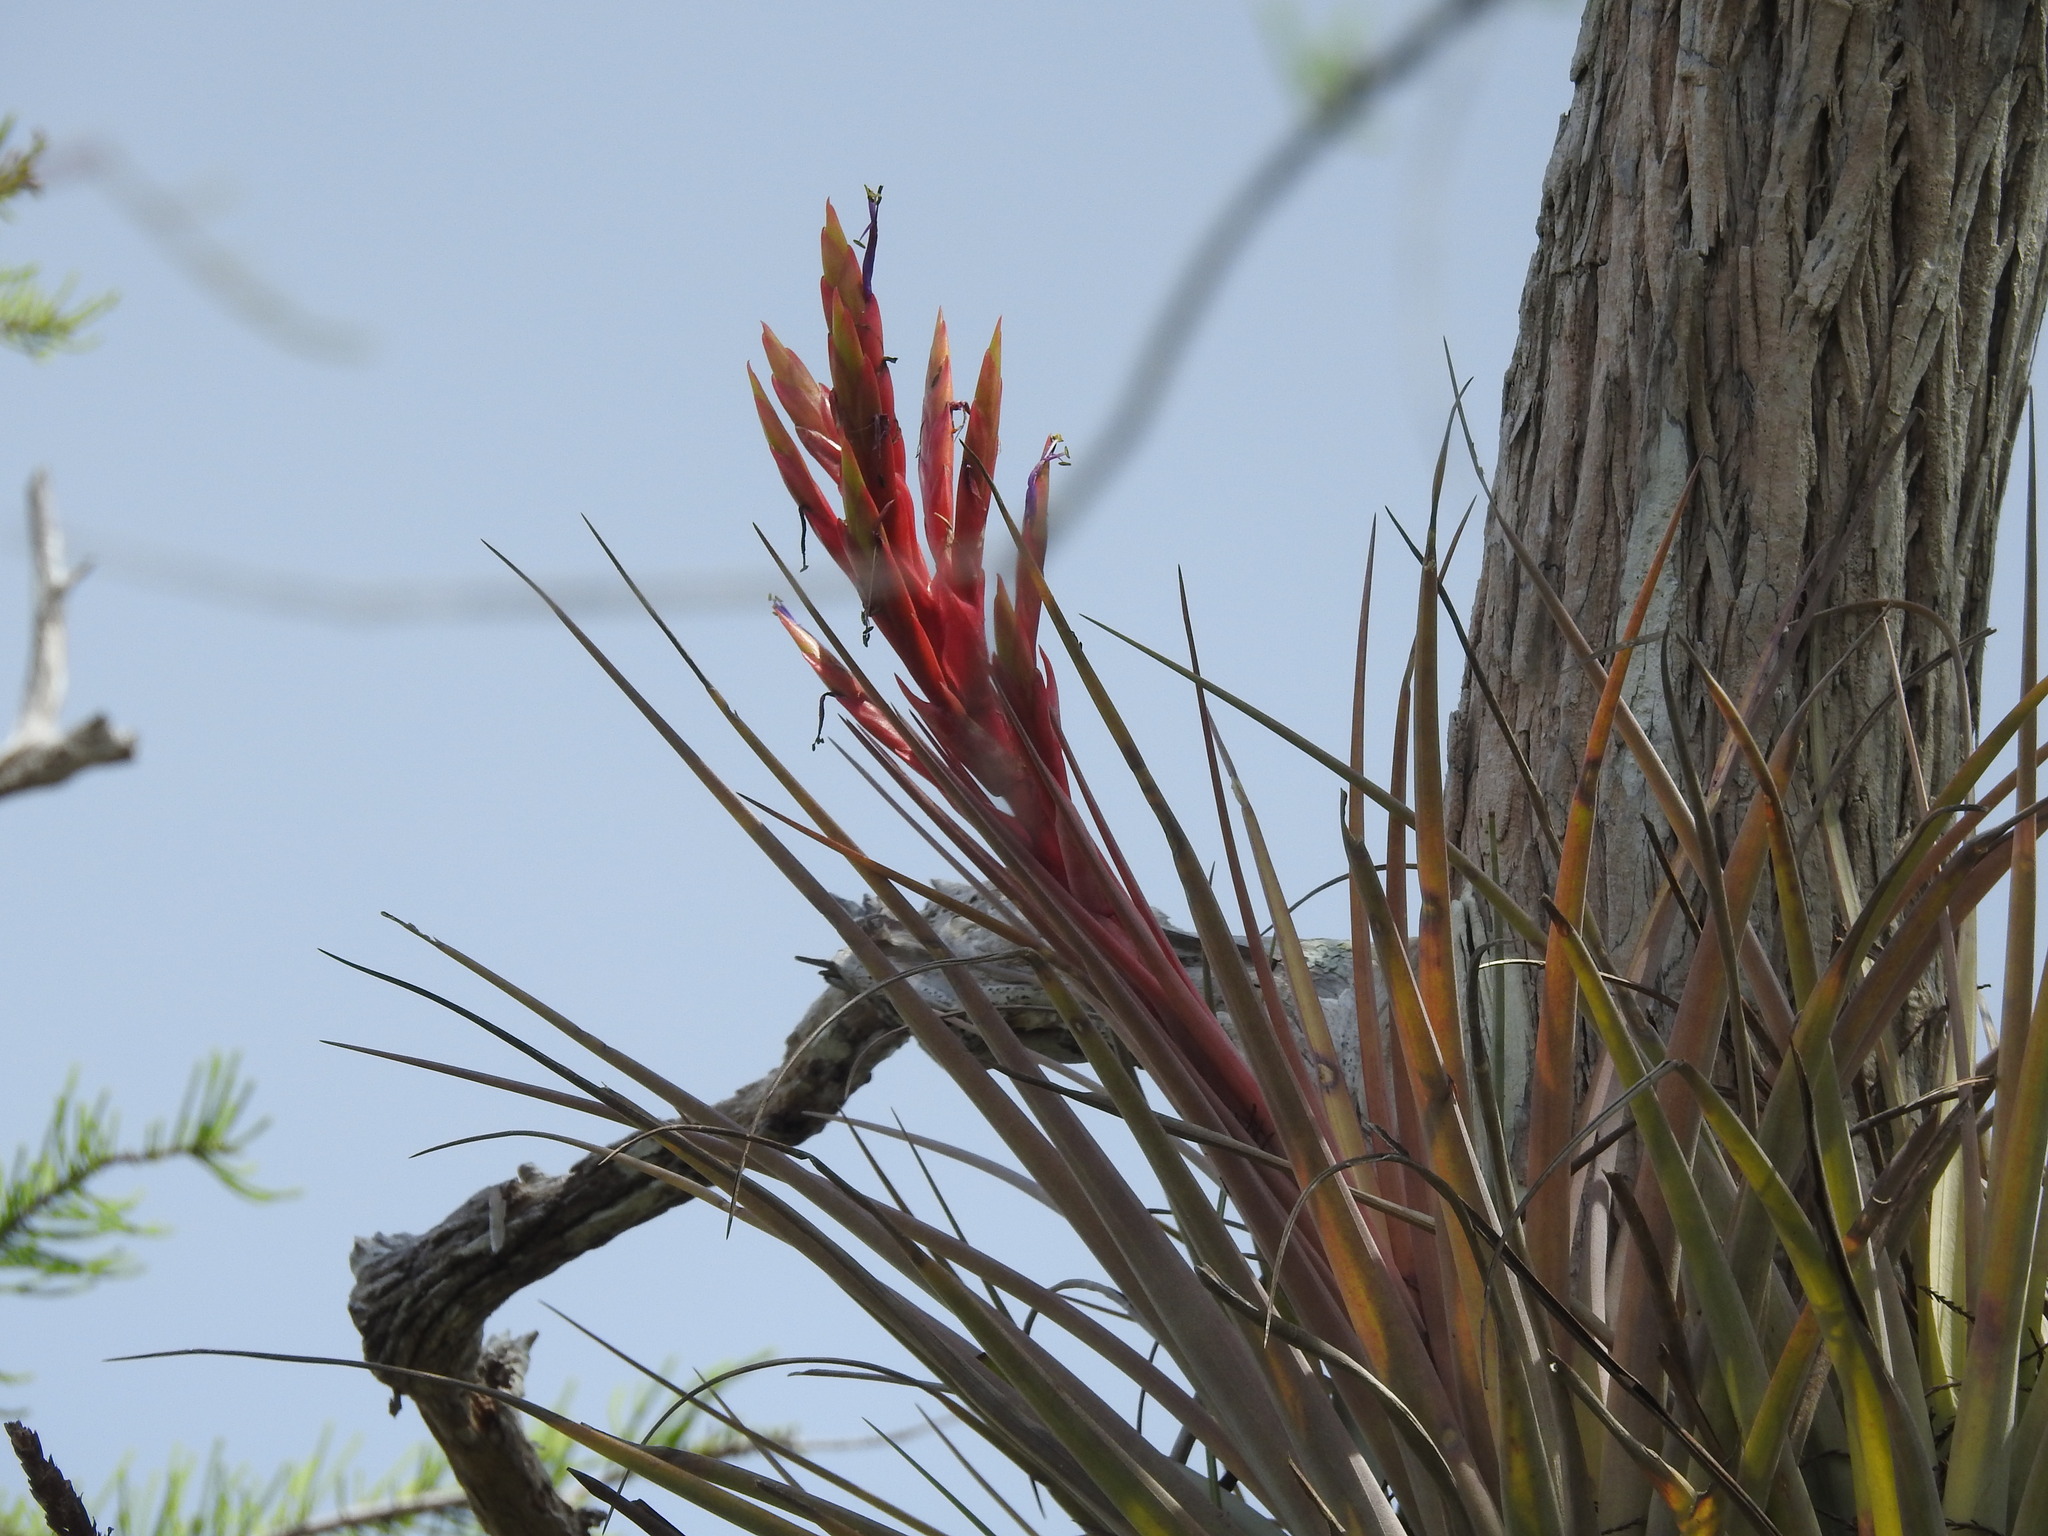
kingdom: Plantae
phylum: Tracheophyta
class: Liliopsida
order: Poales
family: Bromeliaceae
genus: Tillandsia
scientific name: Tillandsia fasciculata
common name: Giant airplant
